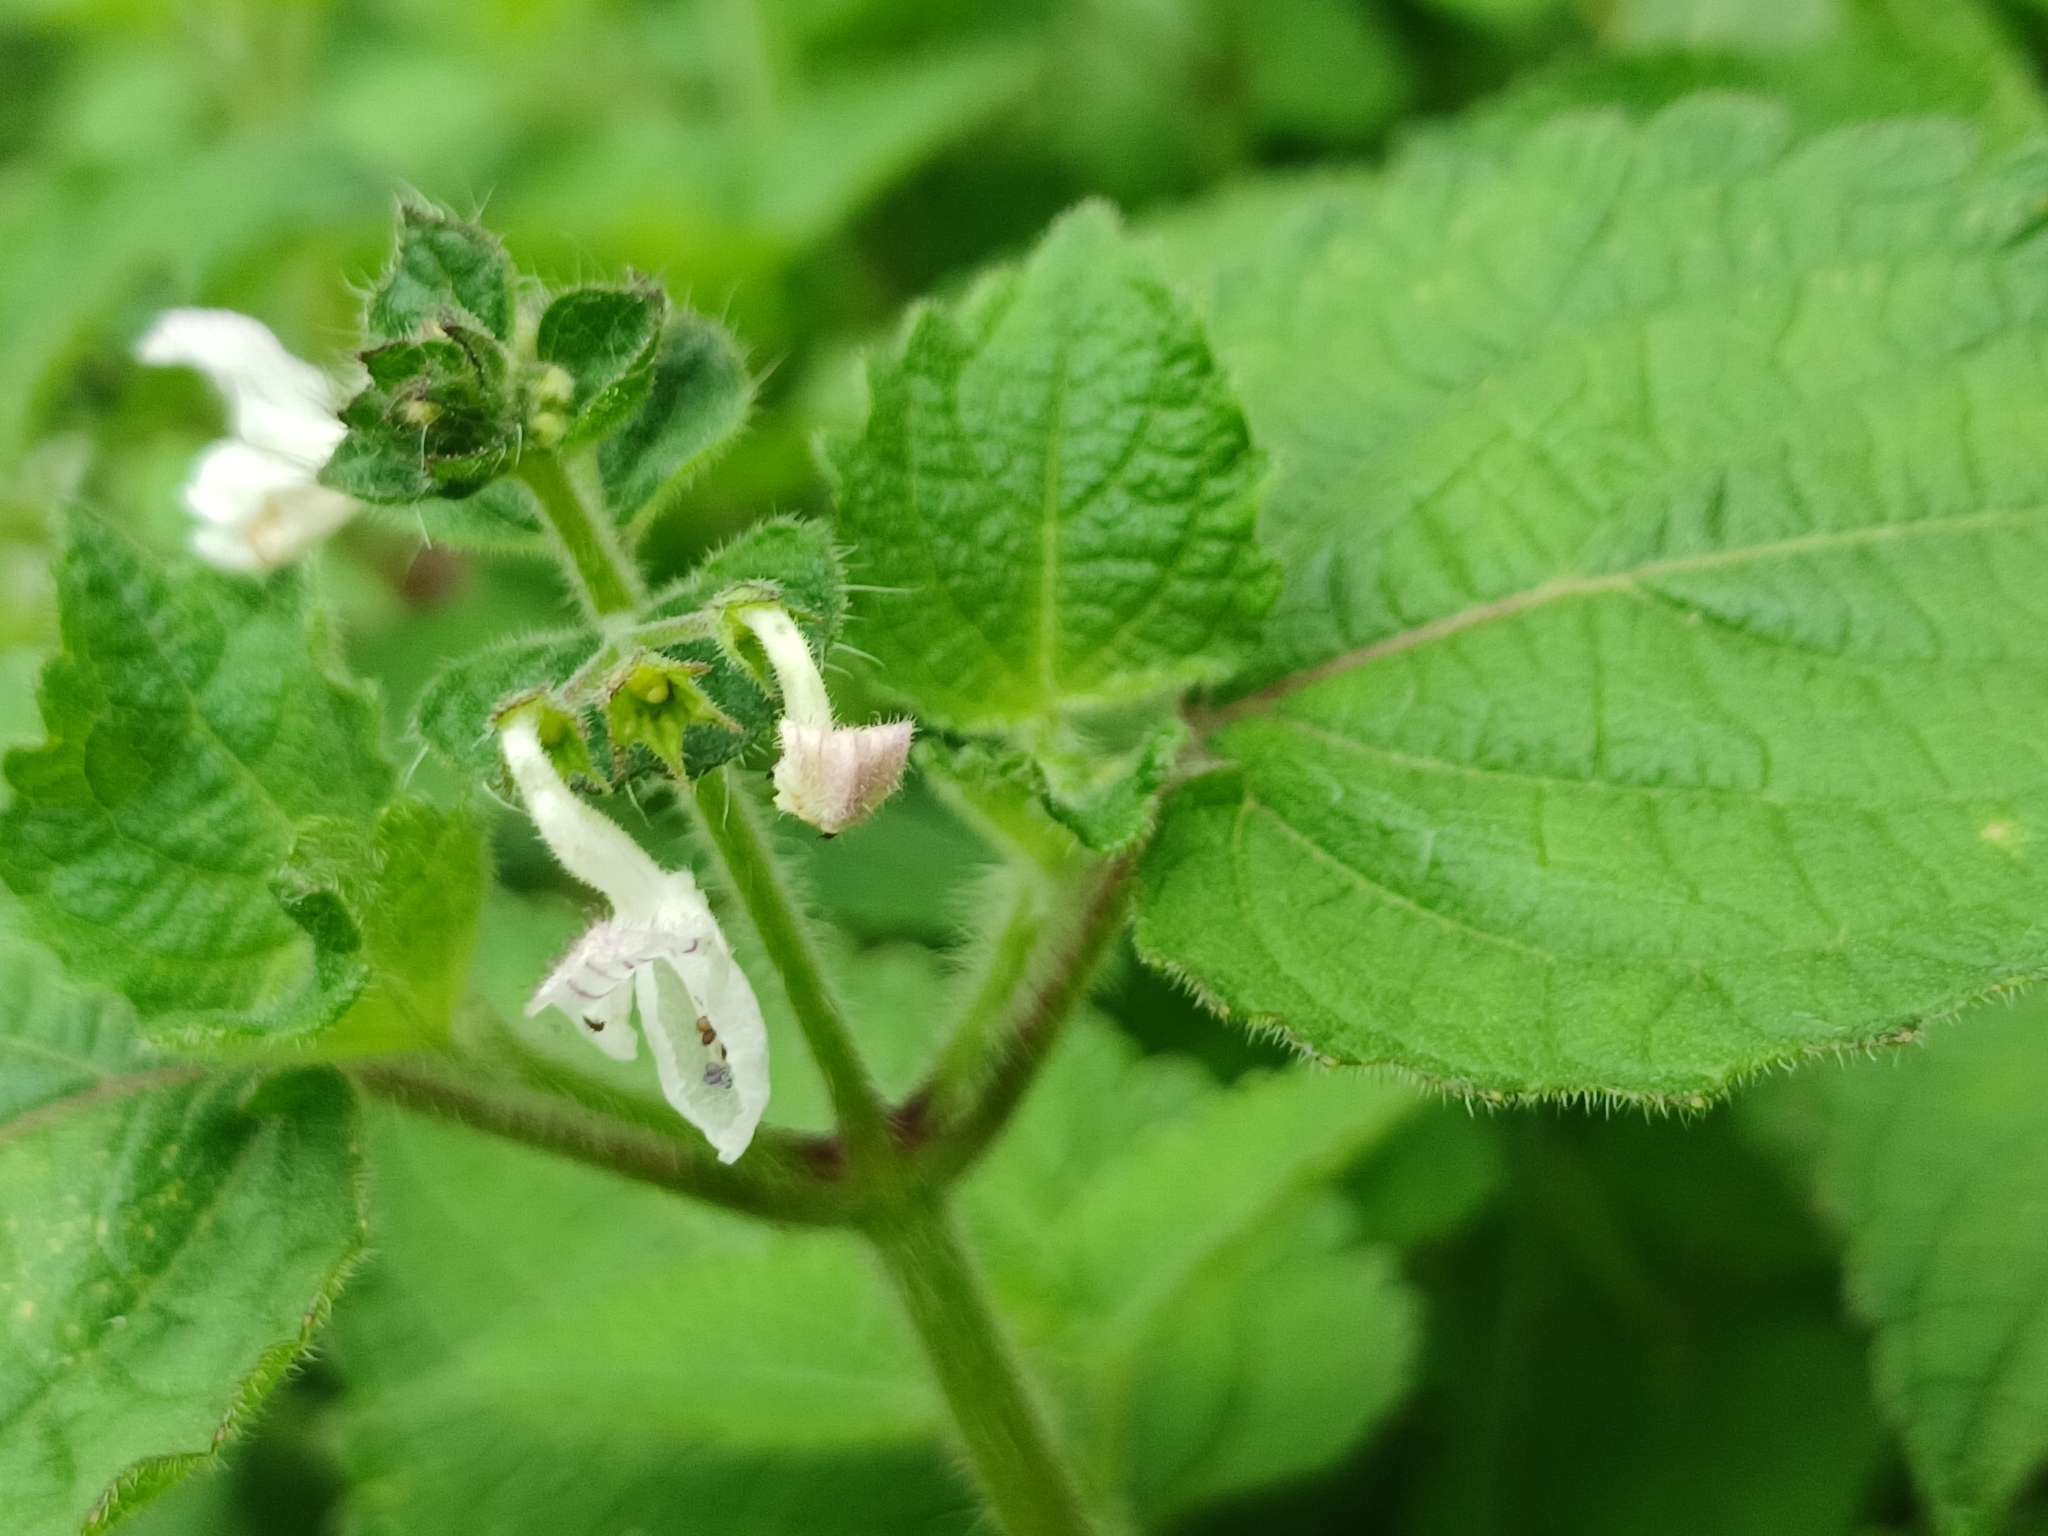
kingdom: Plantae
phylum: Tracheophyta
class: Magnoliopsida
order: Lamiales
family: Lamiaceae
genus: Equilabium
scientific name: Equilabium laxiflorum
